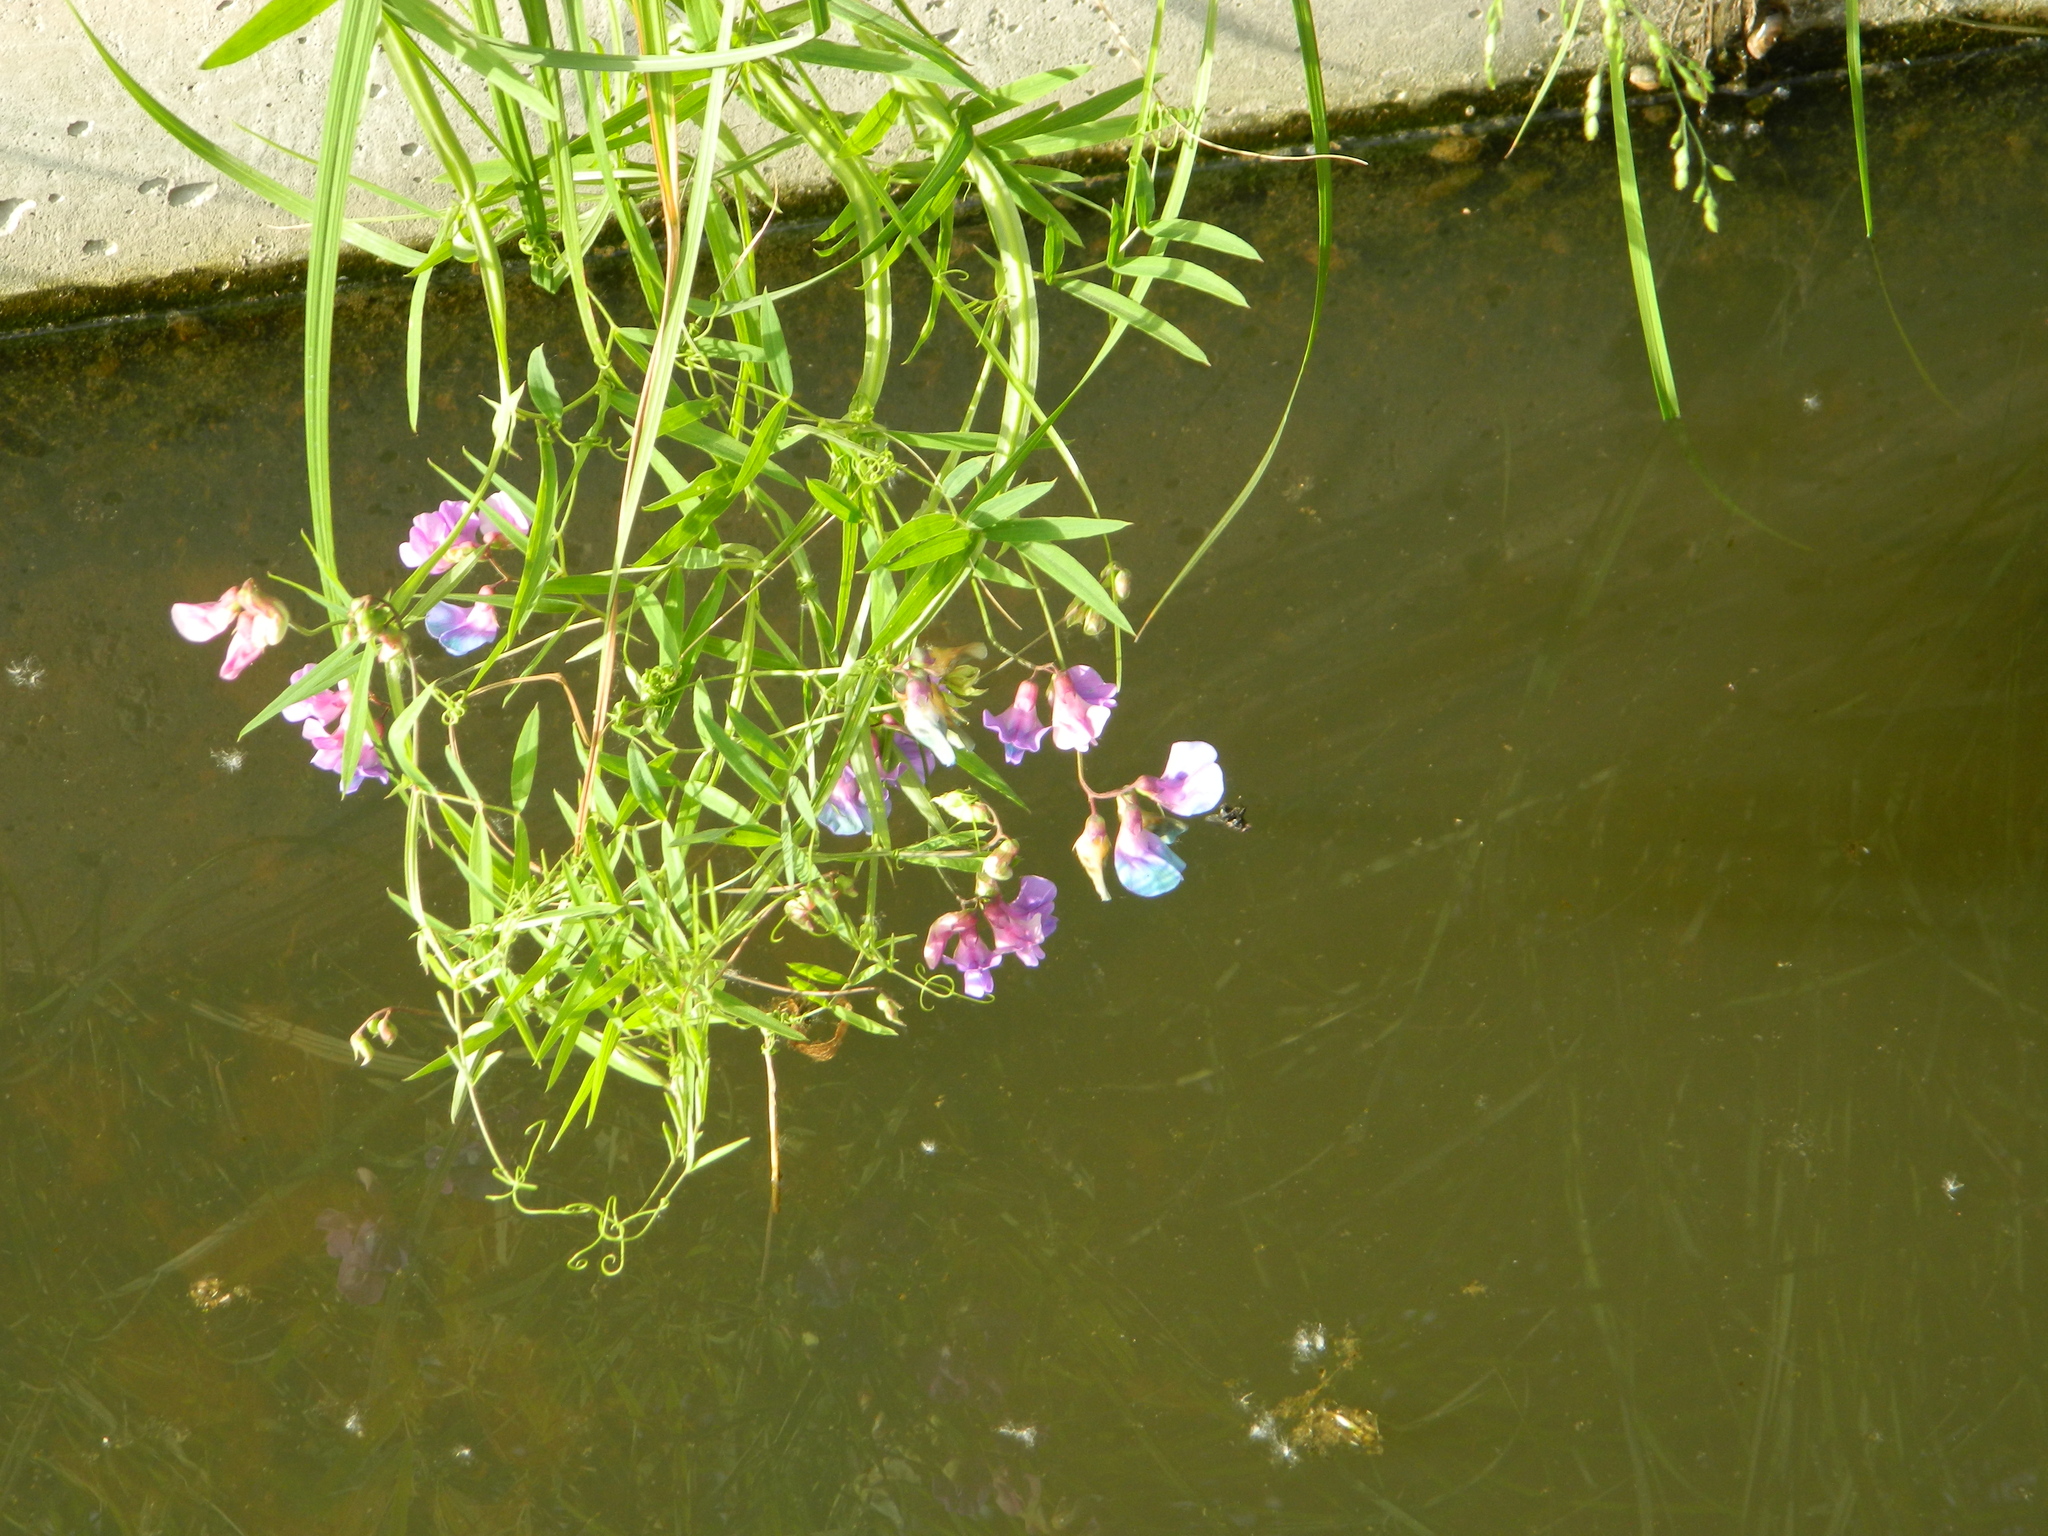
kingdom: Plantae
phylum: Tracheophyta
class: Magnoliopsida
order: Fabales
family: Fabaceae
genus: Lathyrus
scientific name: Lathyrus palustris
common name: Marsh pea
